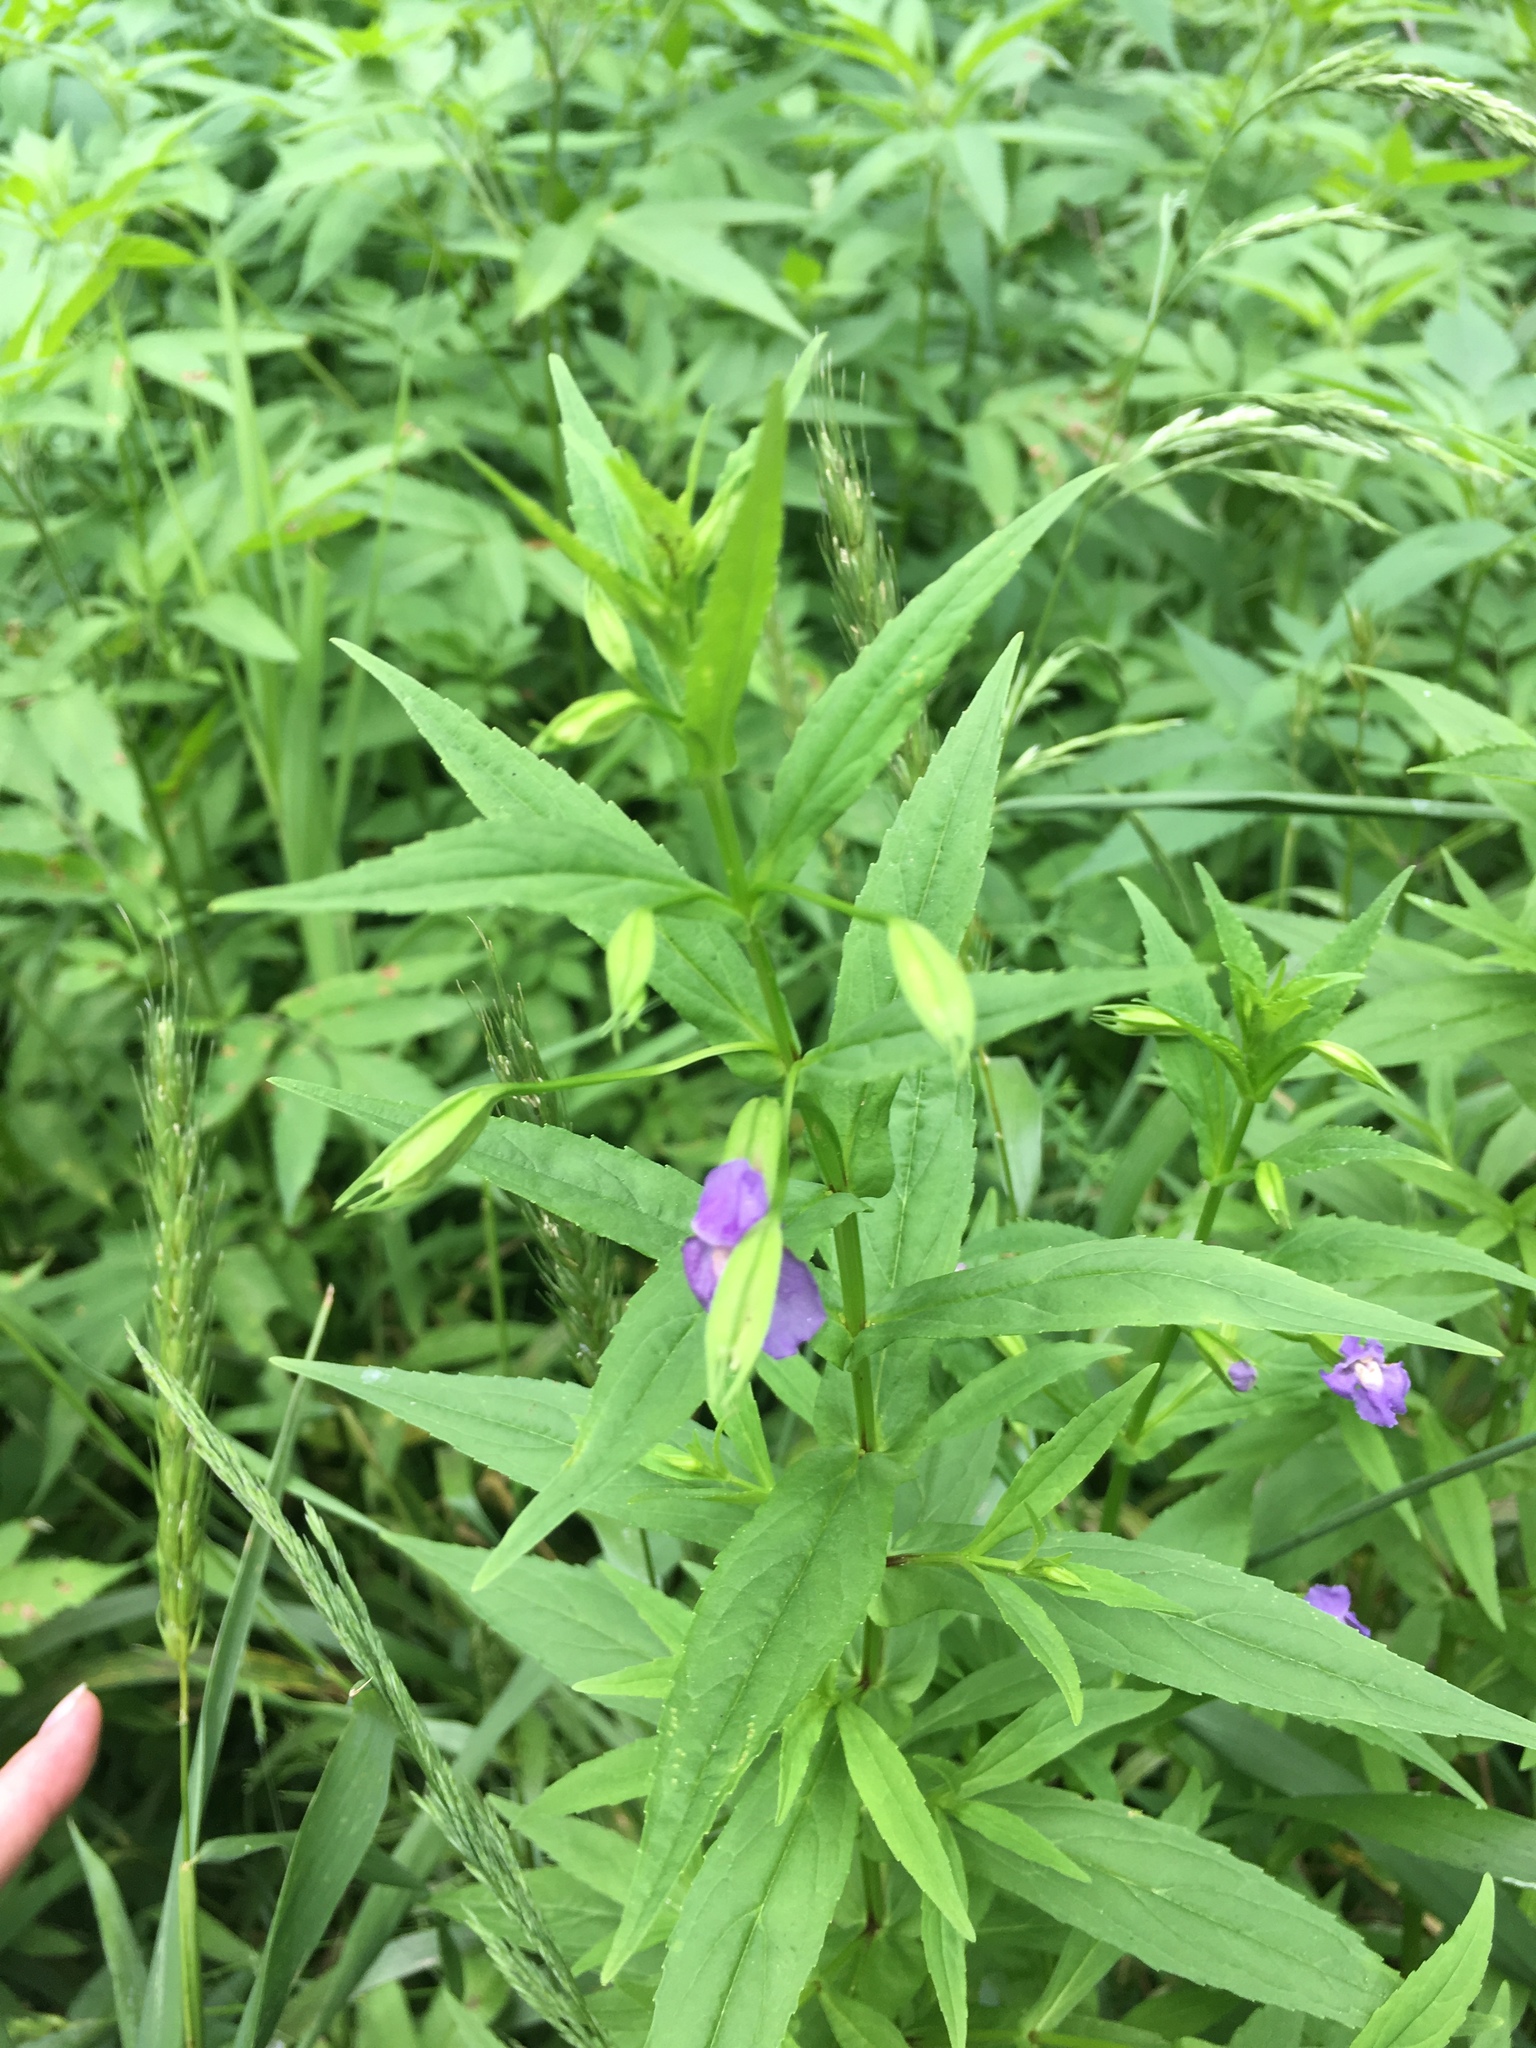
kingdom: Plantae
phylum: Tracheophyta
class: Magnoliopsida
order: Lamiales
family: Phrymaceae
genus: Mimulus
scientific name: Mimulus ringens
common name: Allegheny monkeyflower
